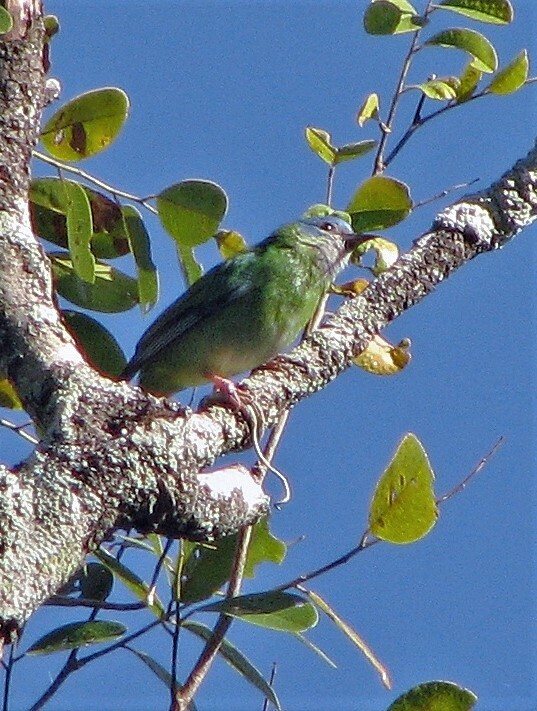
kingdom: Animalia
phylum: Chordata
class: Aves
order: Passeriformes
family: Thraupidae
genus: Dacnis
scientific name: Dacnis cayana
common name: Blue dacnis
